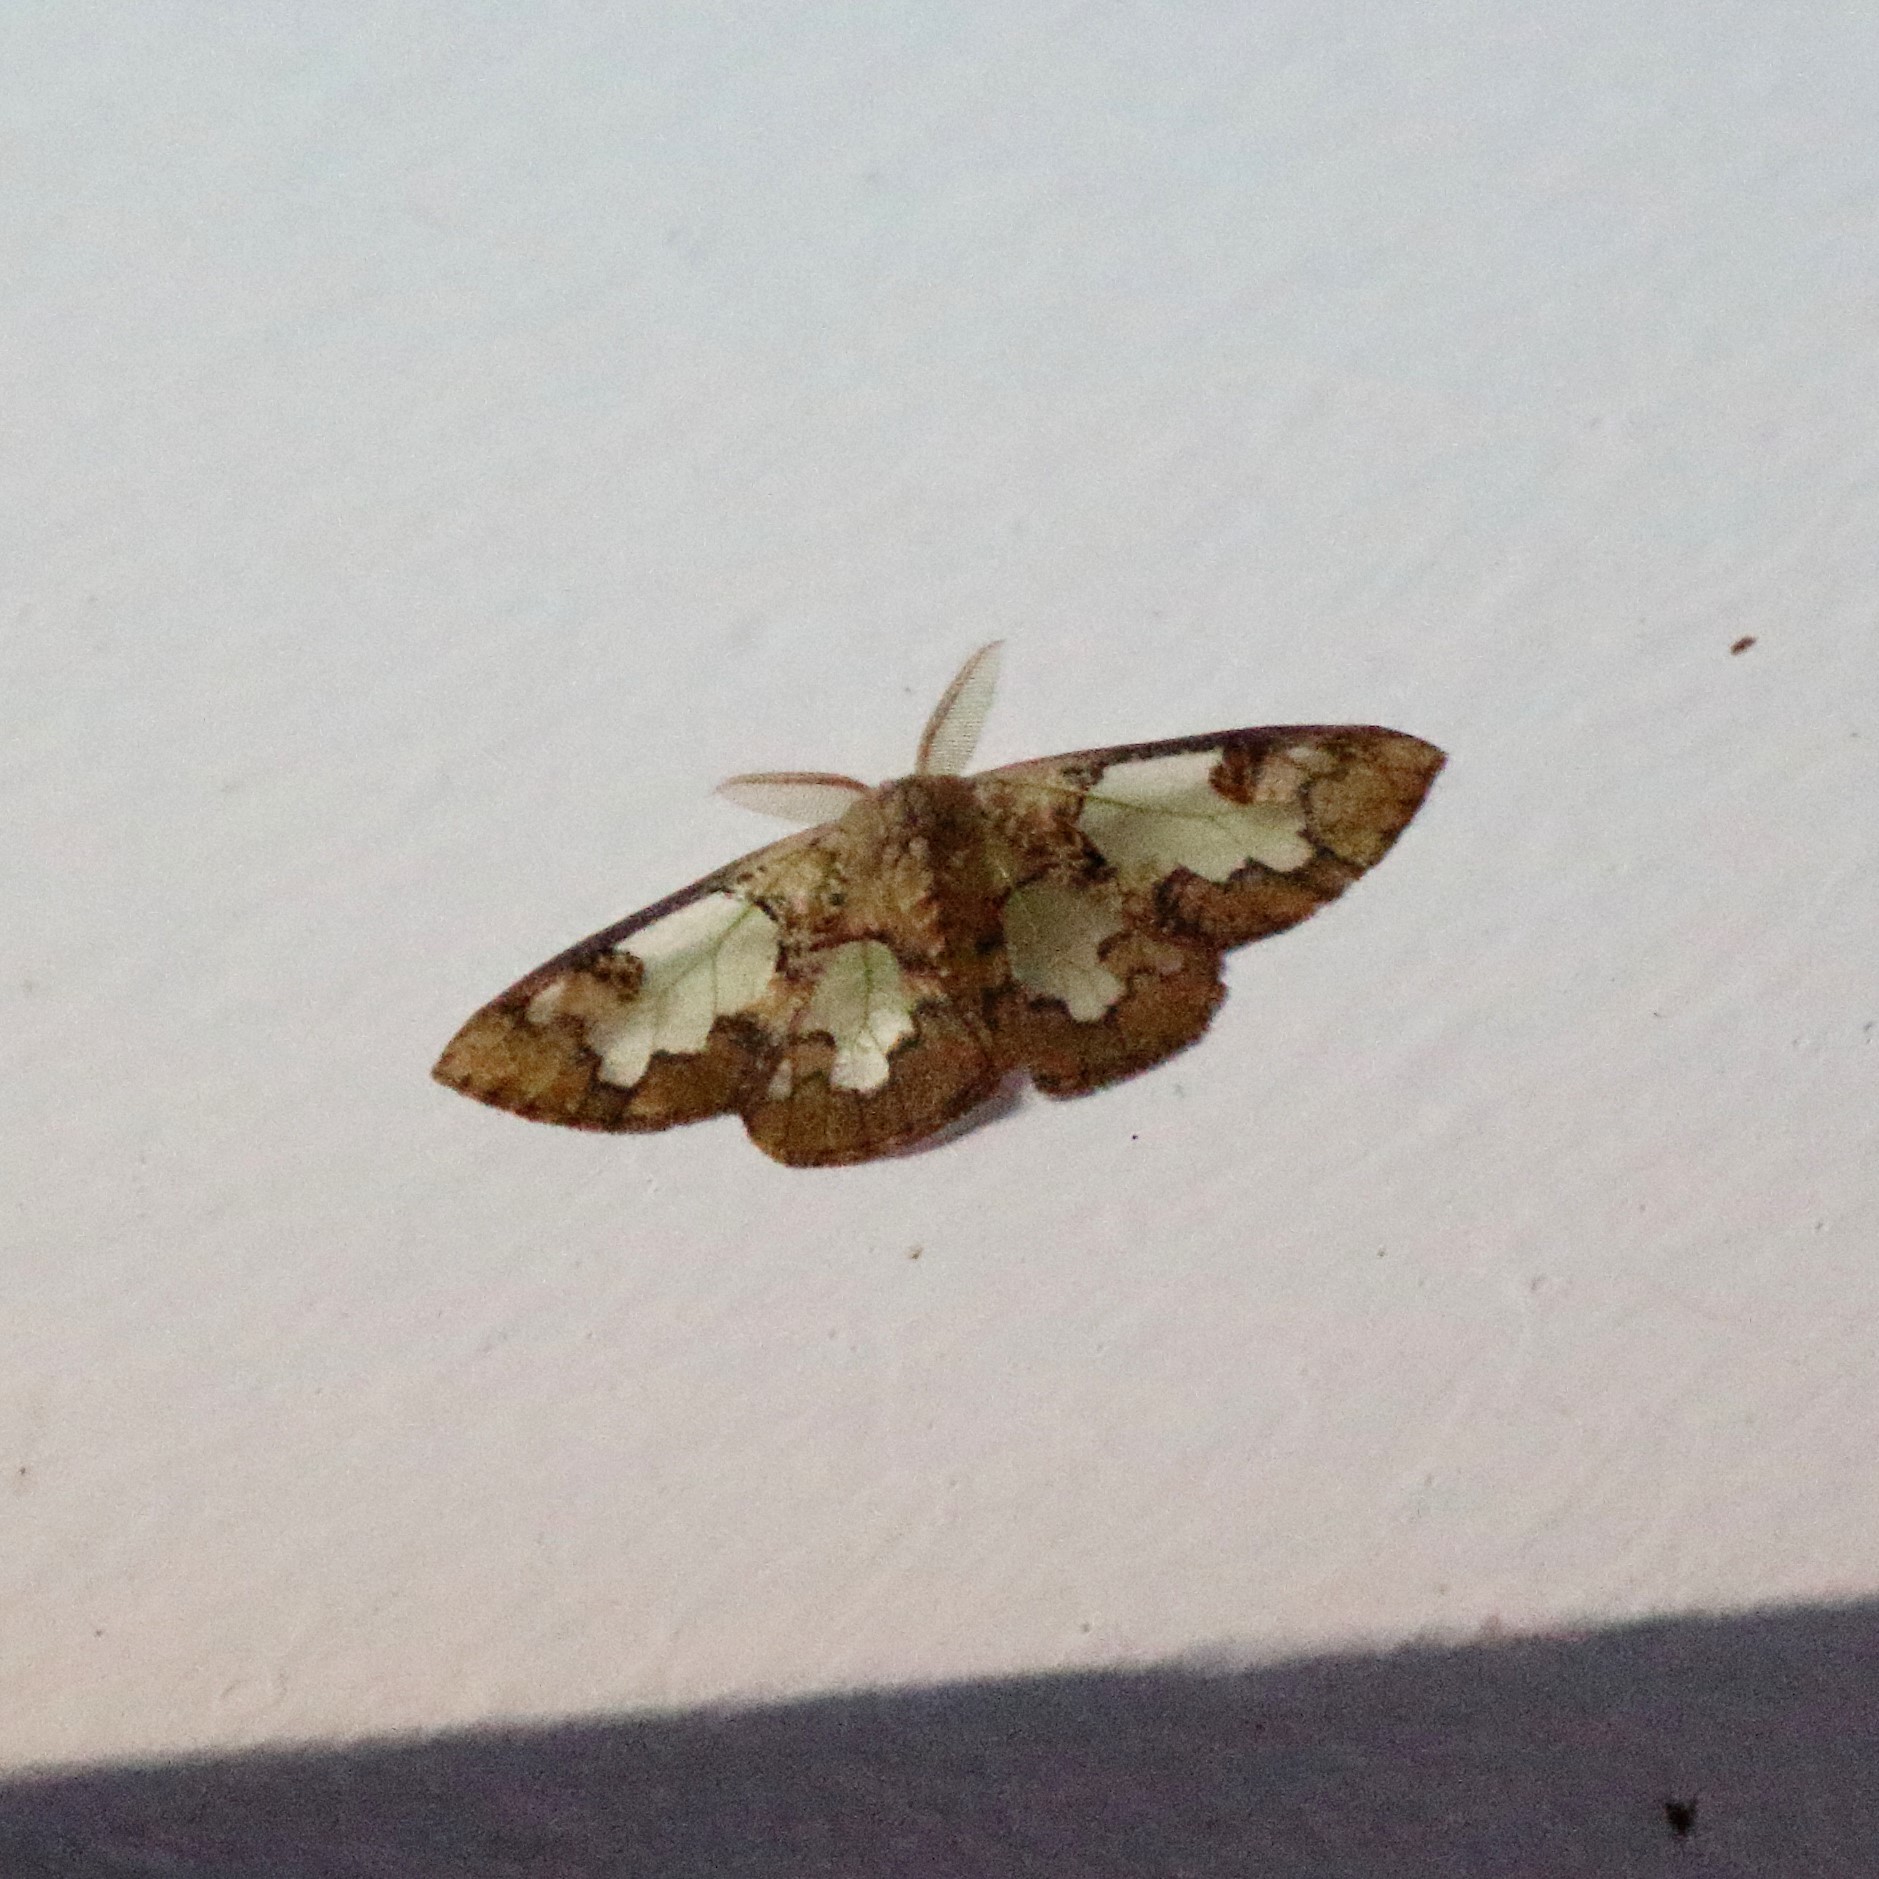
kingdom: Animalia
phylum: Arthropoda
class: Insecta
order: Lepidoptera
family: Erebidae
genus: Carriola
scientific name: Carriola ecnomoda
